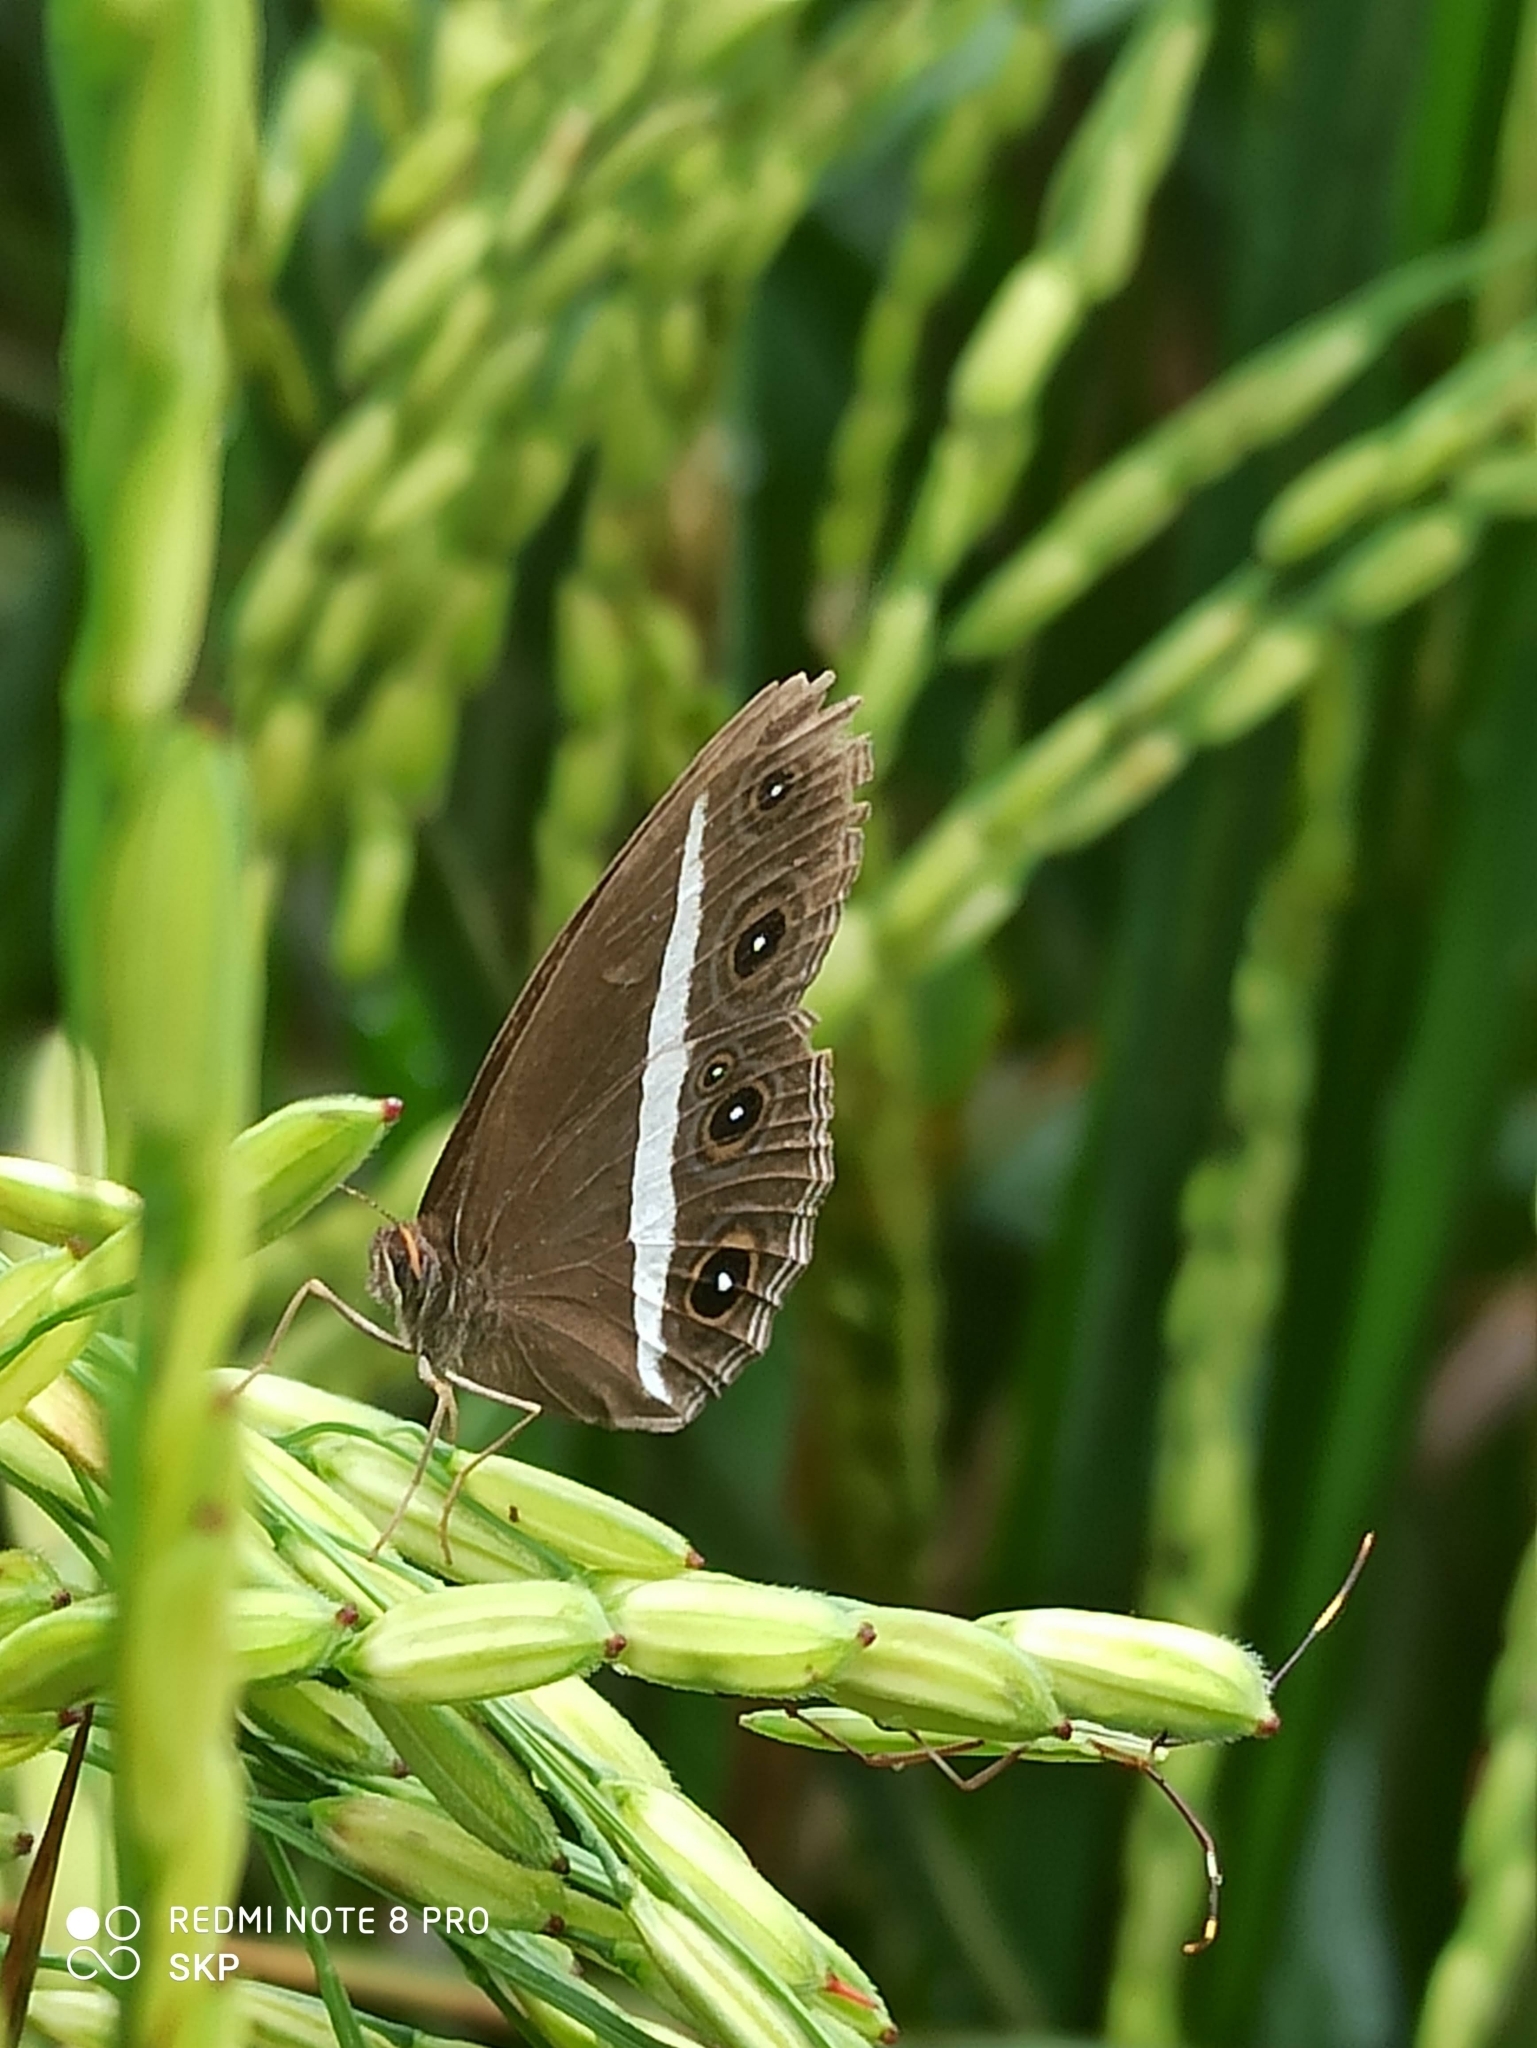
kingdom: Animalia
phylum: Arthropoda
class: Insecta
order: Lepidoptera
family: Nymphalidae
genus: Orsotriaena
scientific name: Orsotriaena medus
